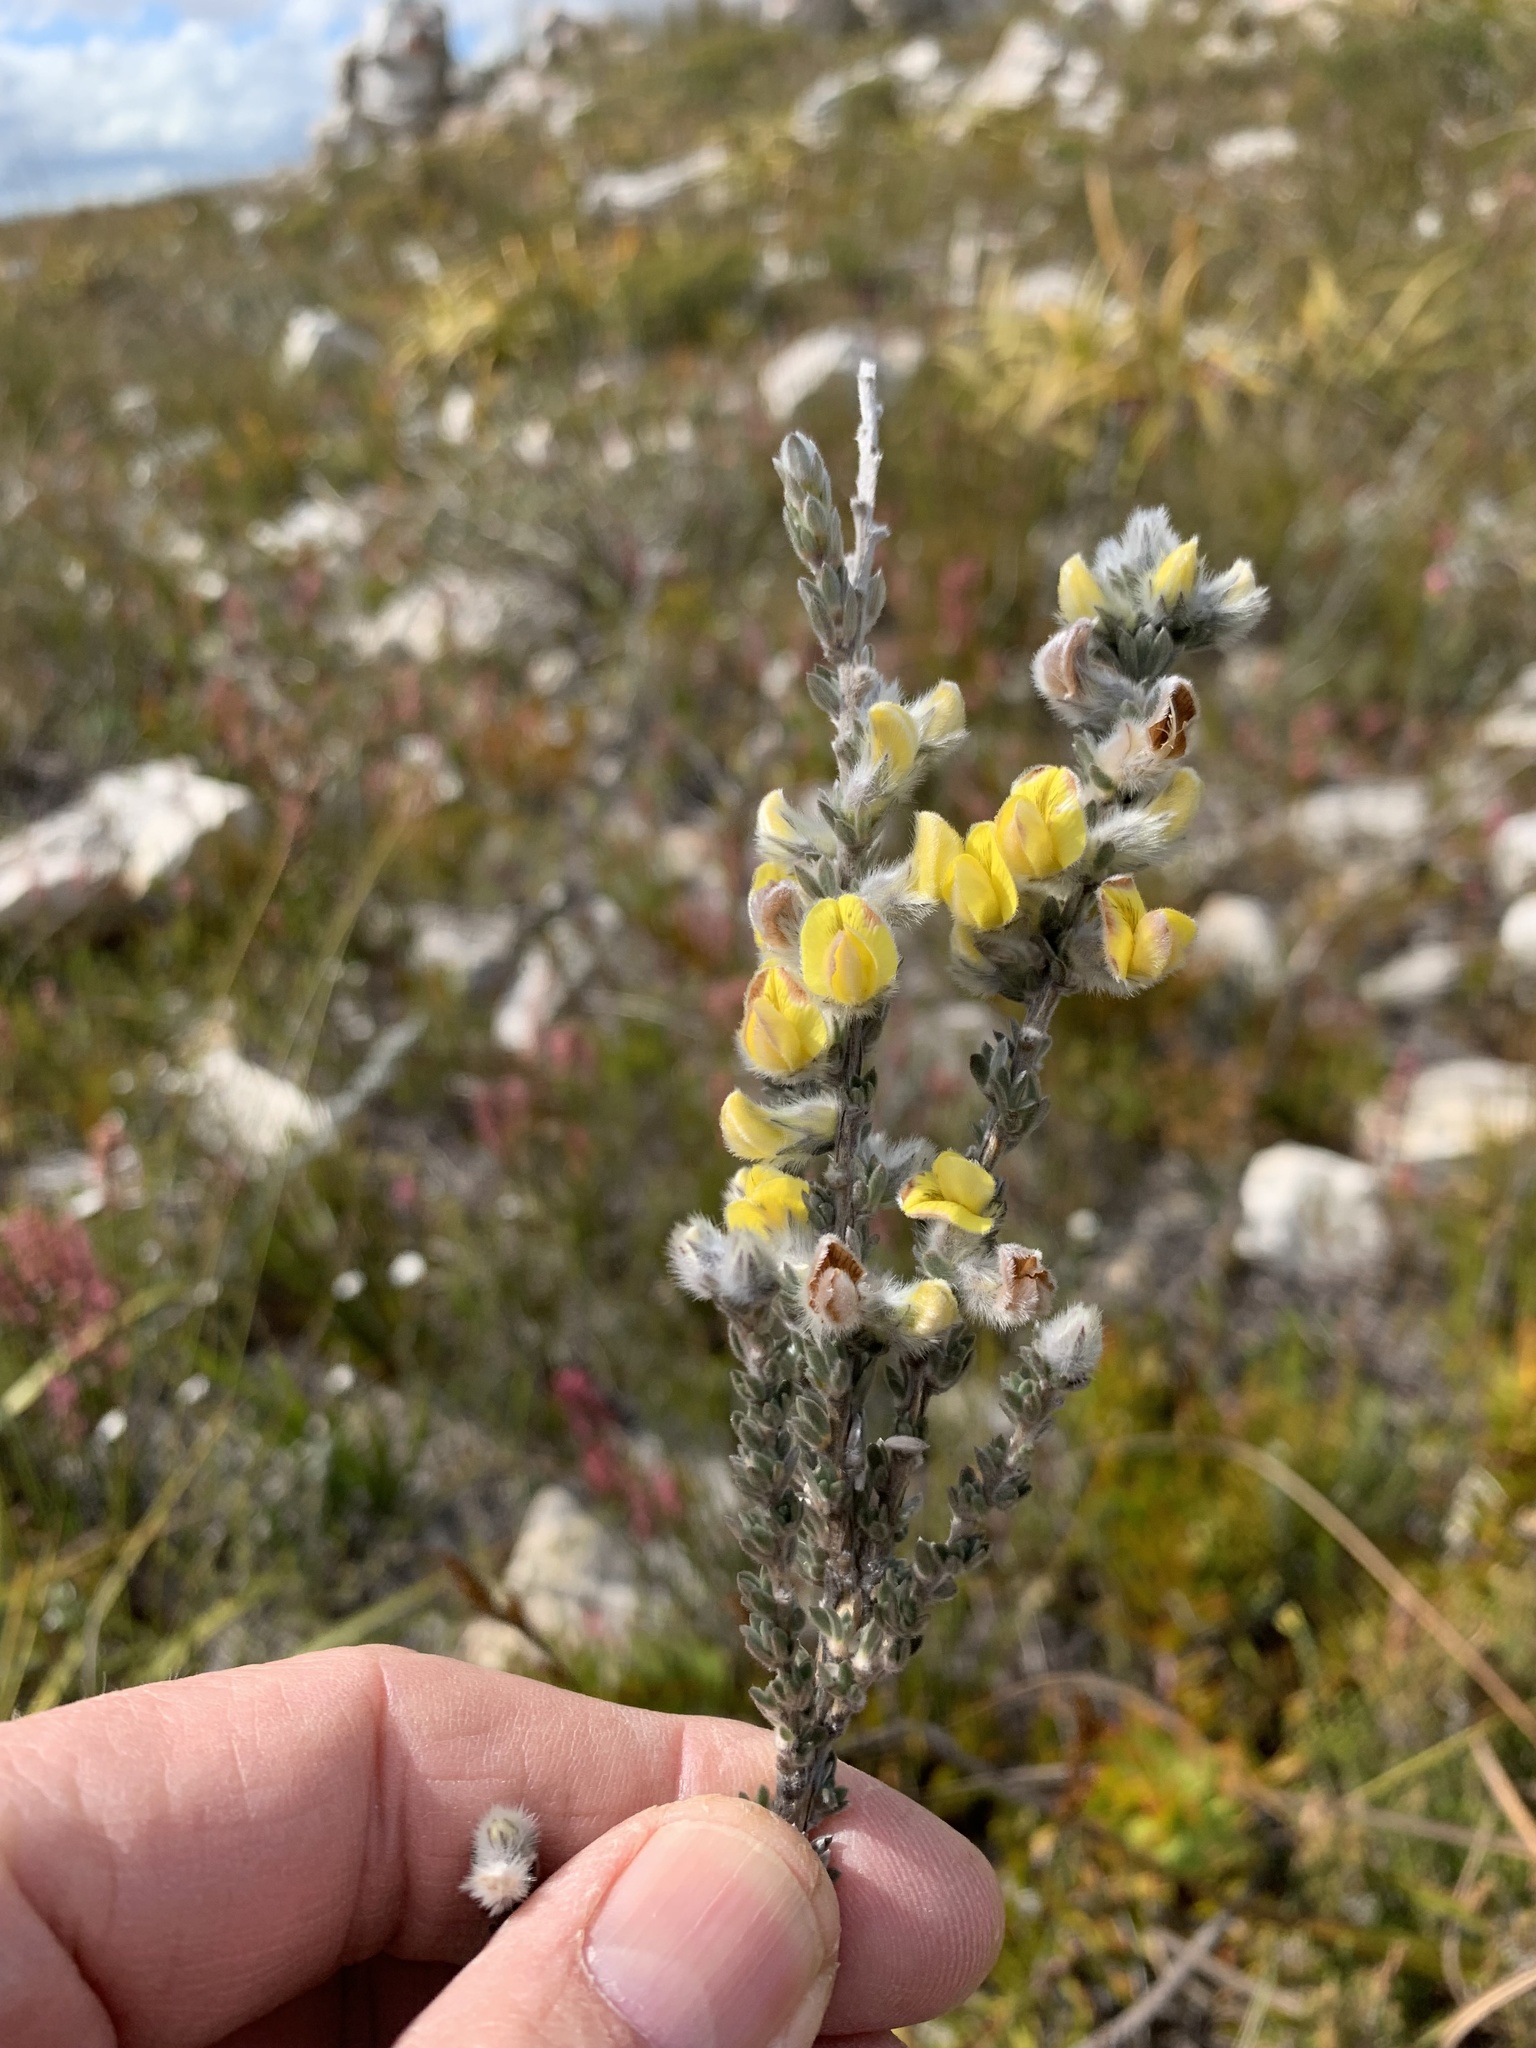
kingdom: Plantae
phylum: Tracheophyta
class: Magnoliopsida
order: Fabales
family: Fabaceae
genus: Aspalathus
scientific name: Aspalathus oblongifolia
